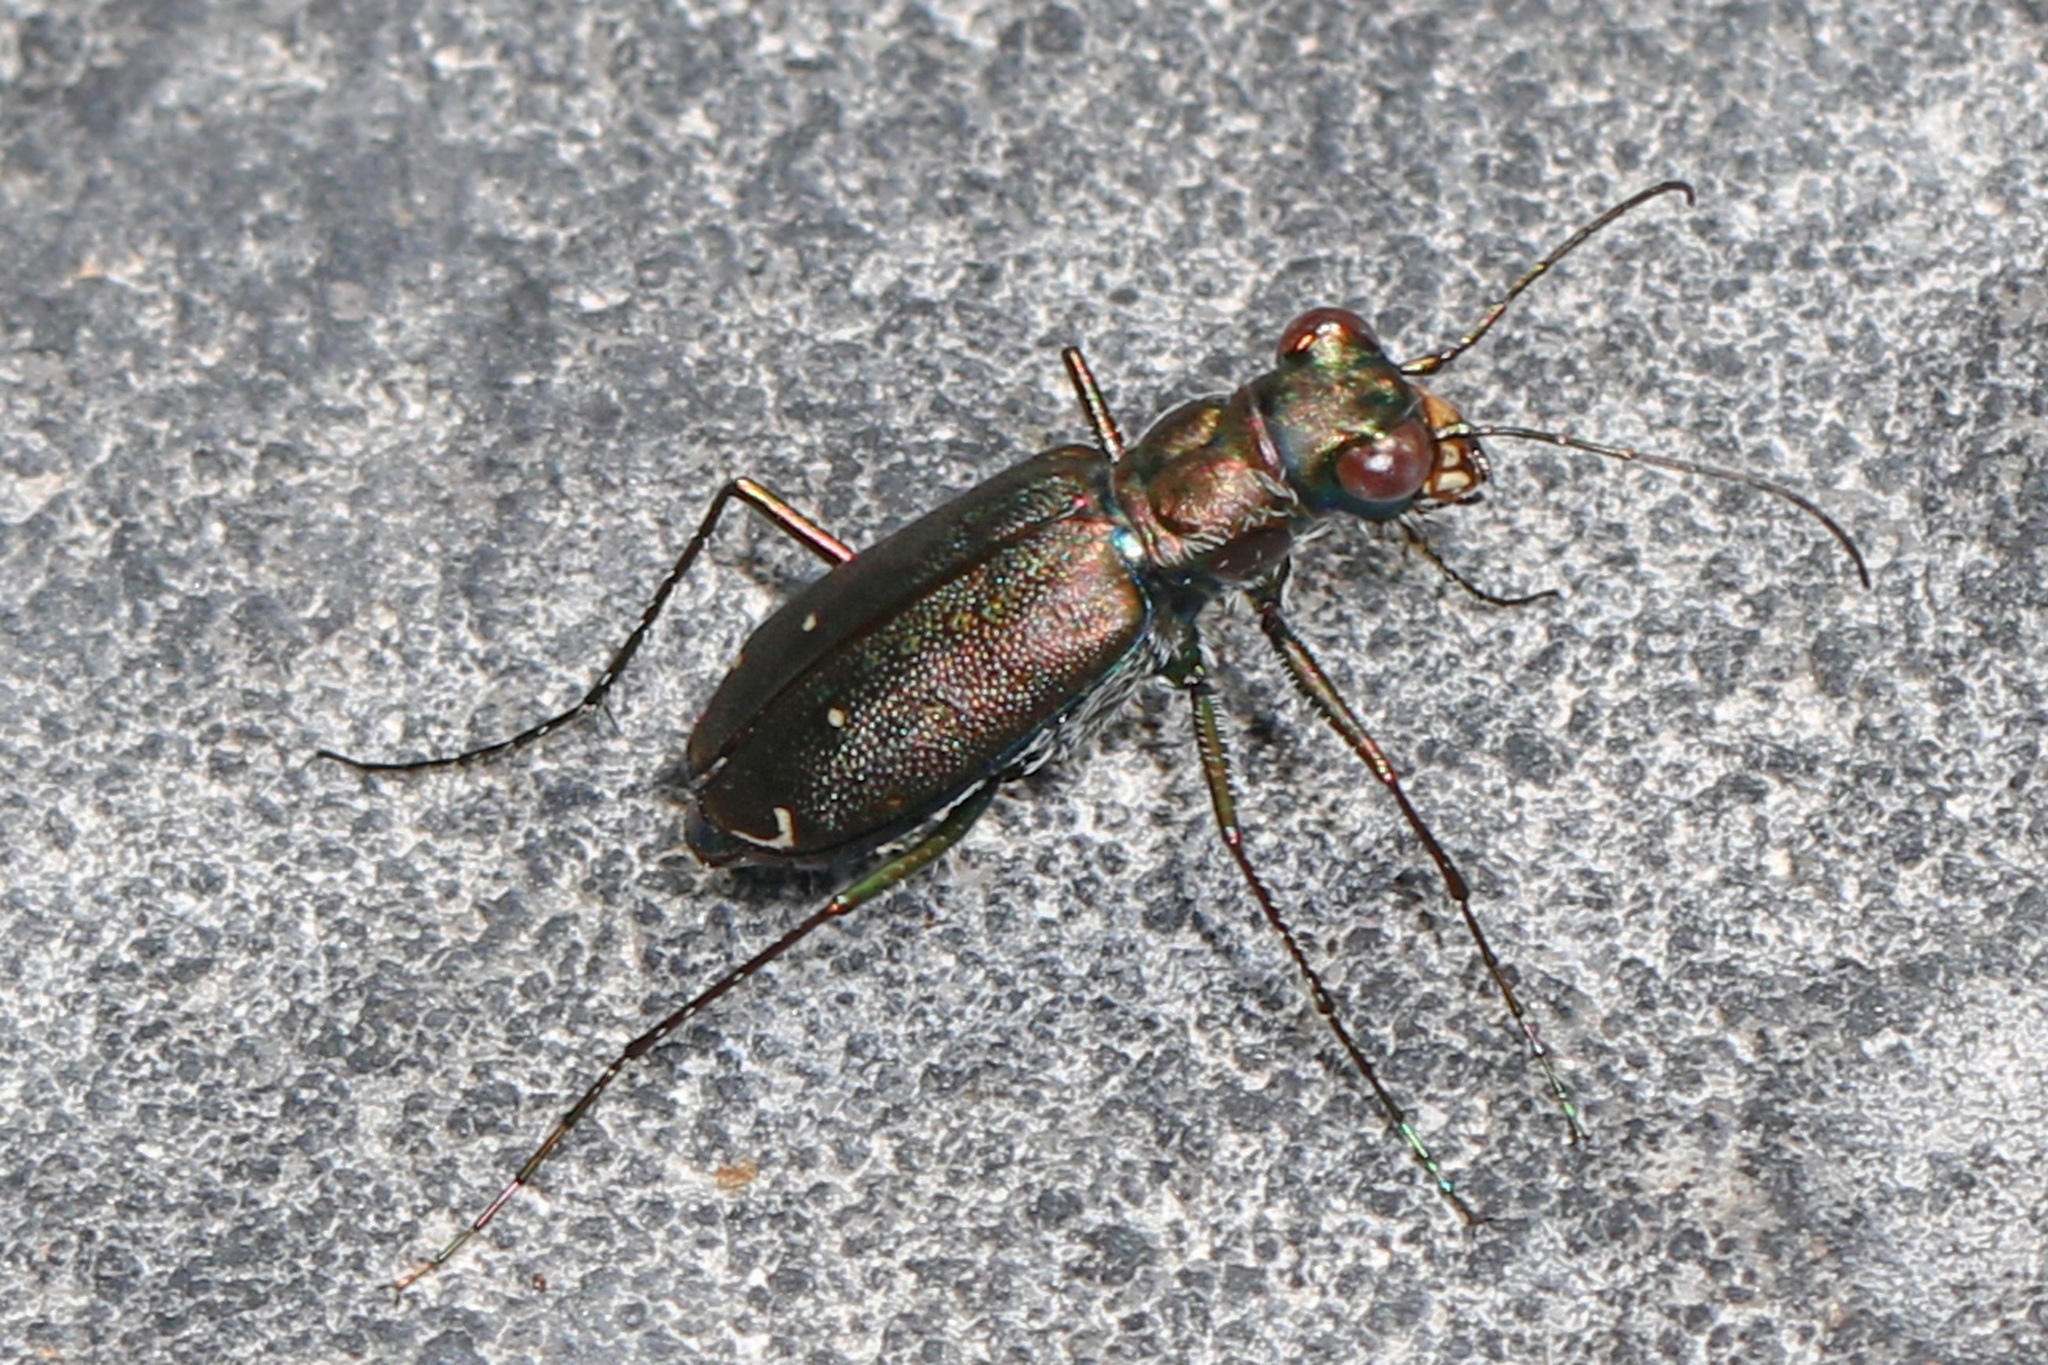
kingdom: Animalia
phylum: Arthropoda
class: Insecta
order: Coleoptera
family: Carabidae
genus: Cicindela
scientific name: Cicindela punctulata
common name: Punctured tiger beetle
